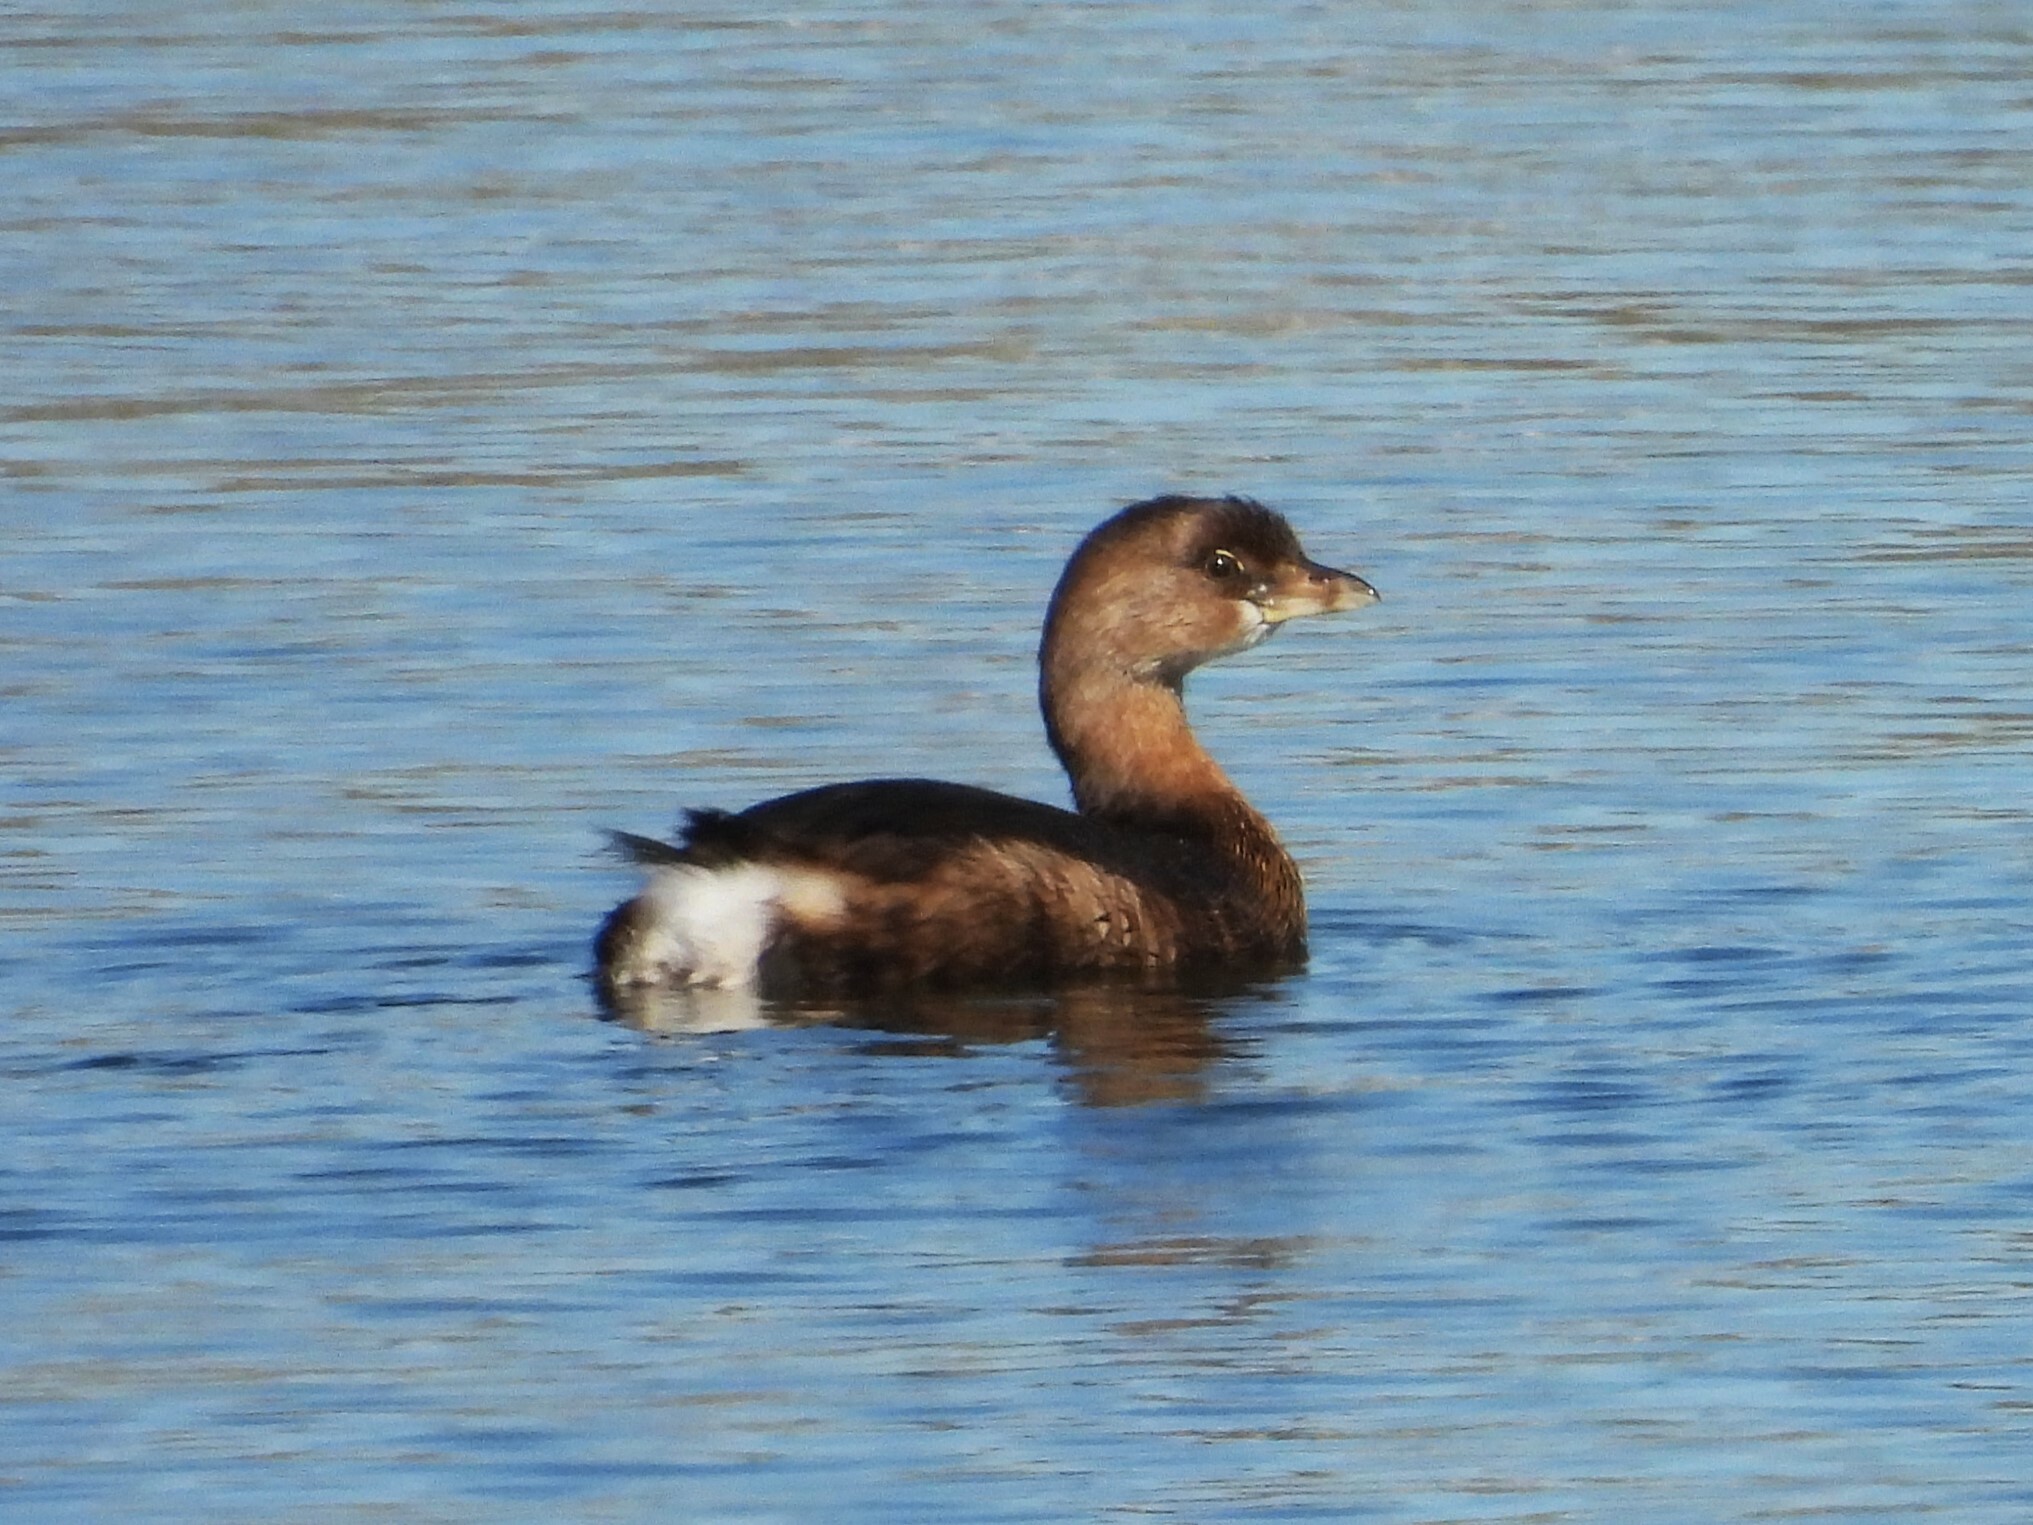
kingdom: Animalia
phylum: Chordata
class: Aves
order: Podicipediformes
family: Podicipedidae
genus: Podilymbus
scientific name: Podilymbus podiceps
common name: Pied-billed grebe
